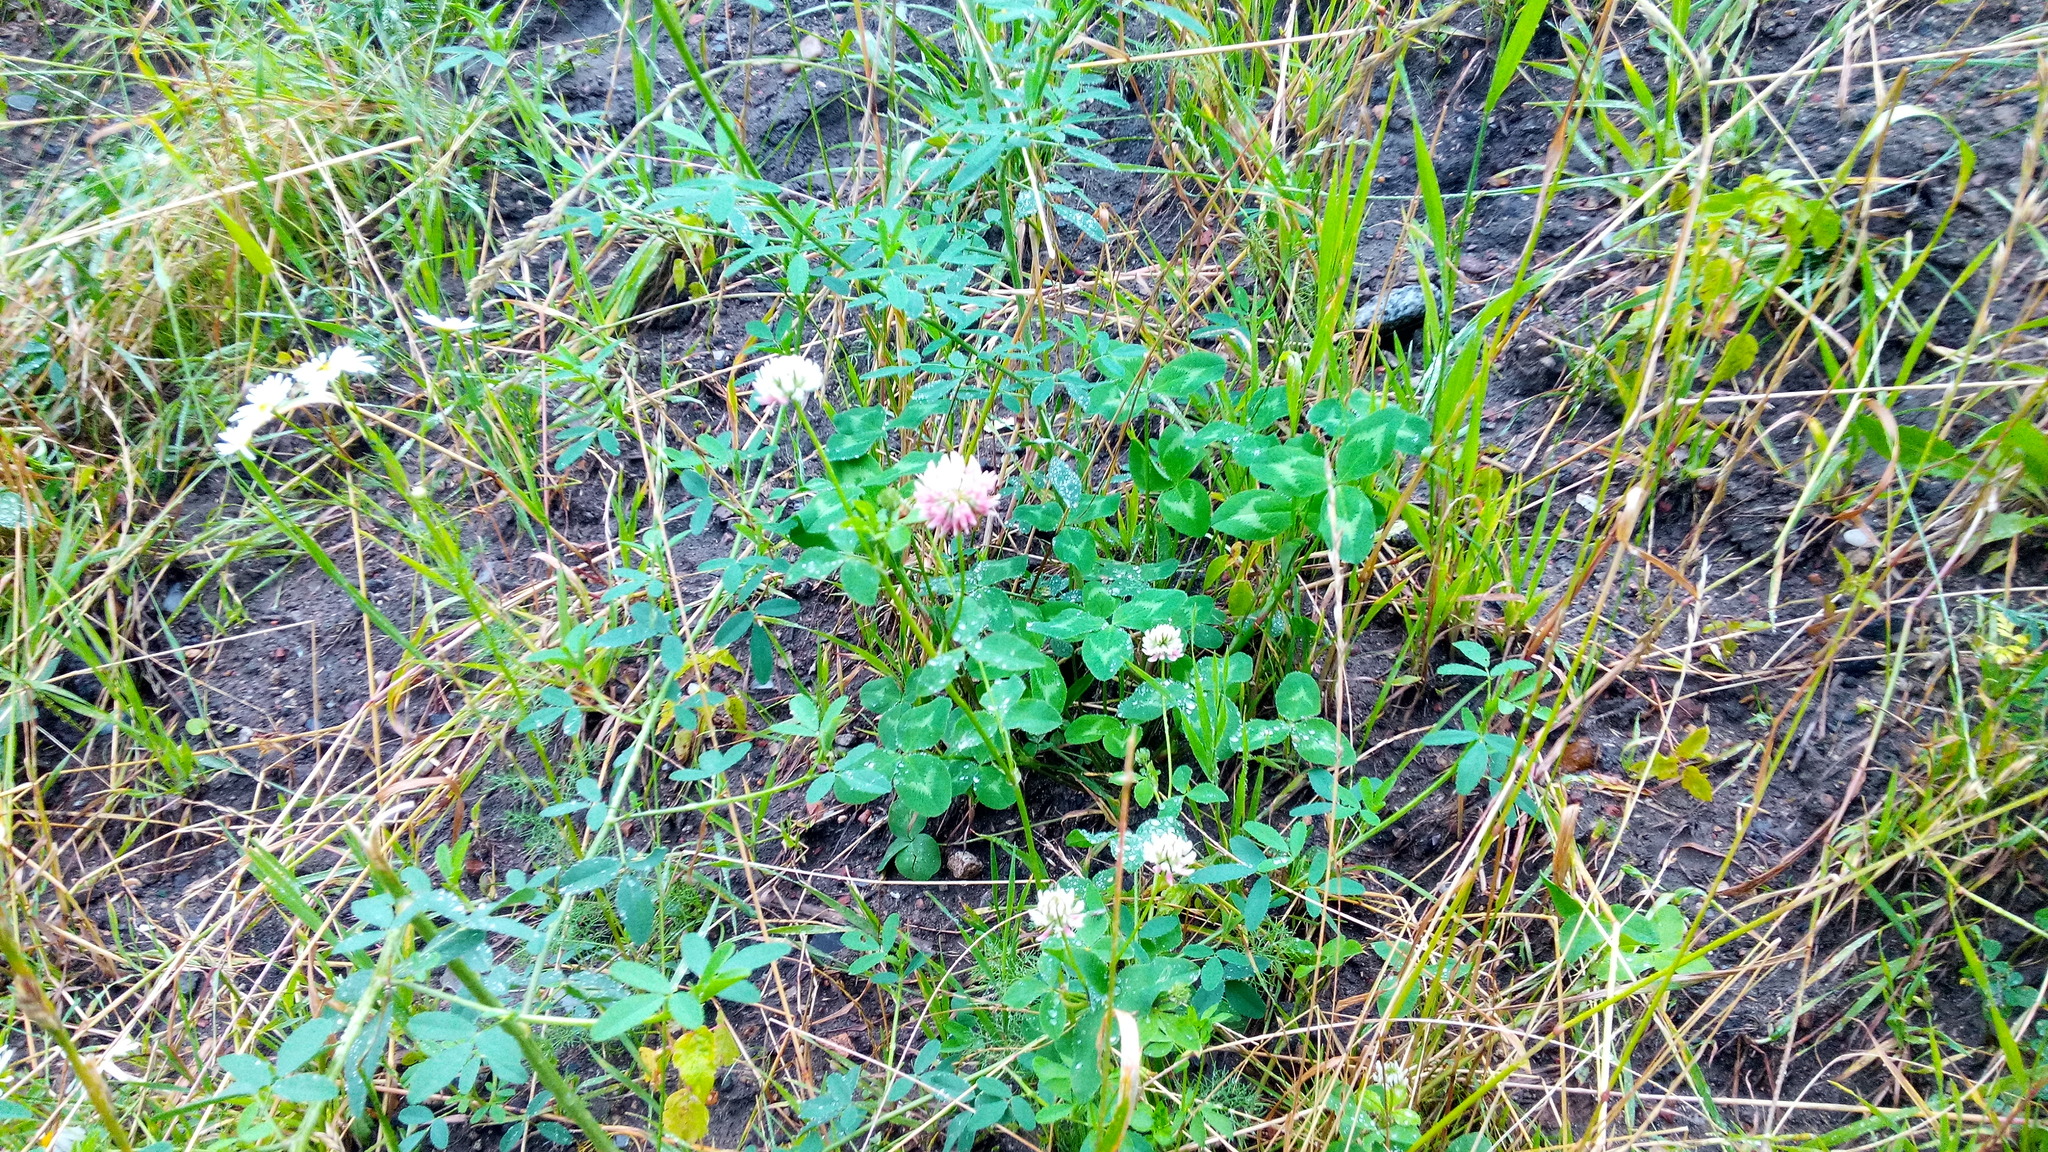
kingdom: Plantae
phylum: Tracheophyta
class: Magnoliopsida
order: Fabales
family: Fabaceae
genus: Trifolium
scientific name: Trifolium hybridum
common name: Alsike clover
